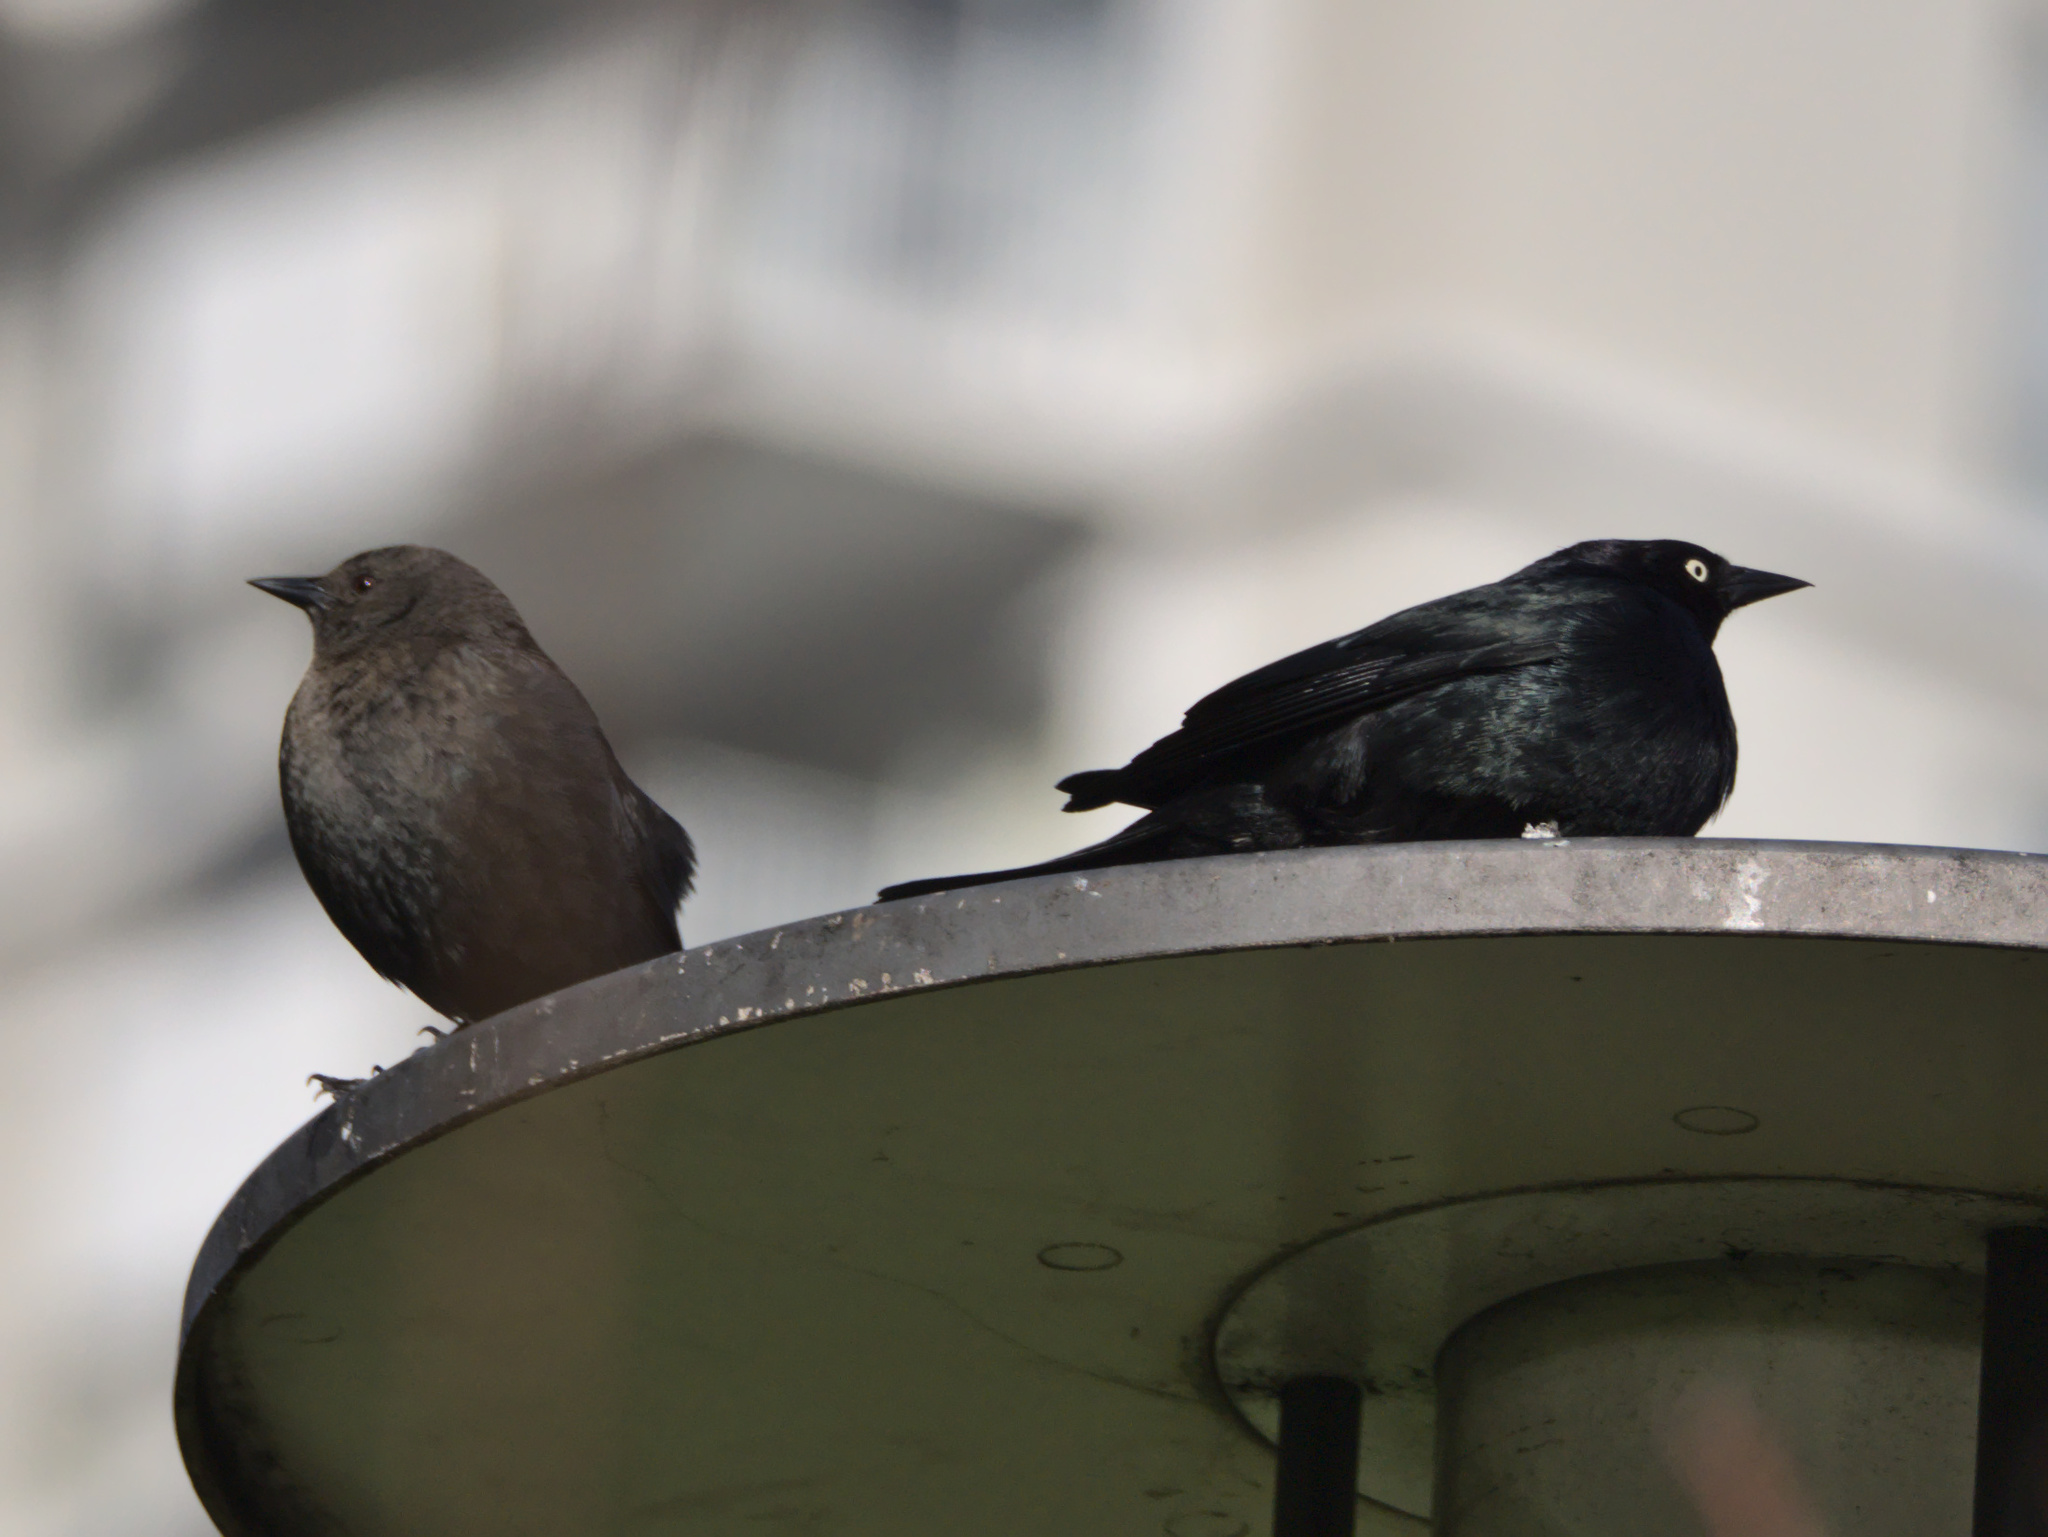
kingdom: Animalia
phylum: Chordata
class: Aves
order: Passeriformes
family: Icteridae
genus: Euphagus
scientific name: Euphagus cyanocephalus
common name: Brewer's blackbird
